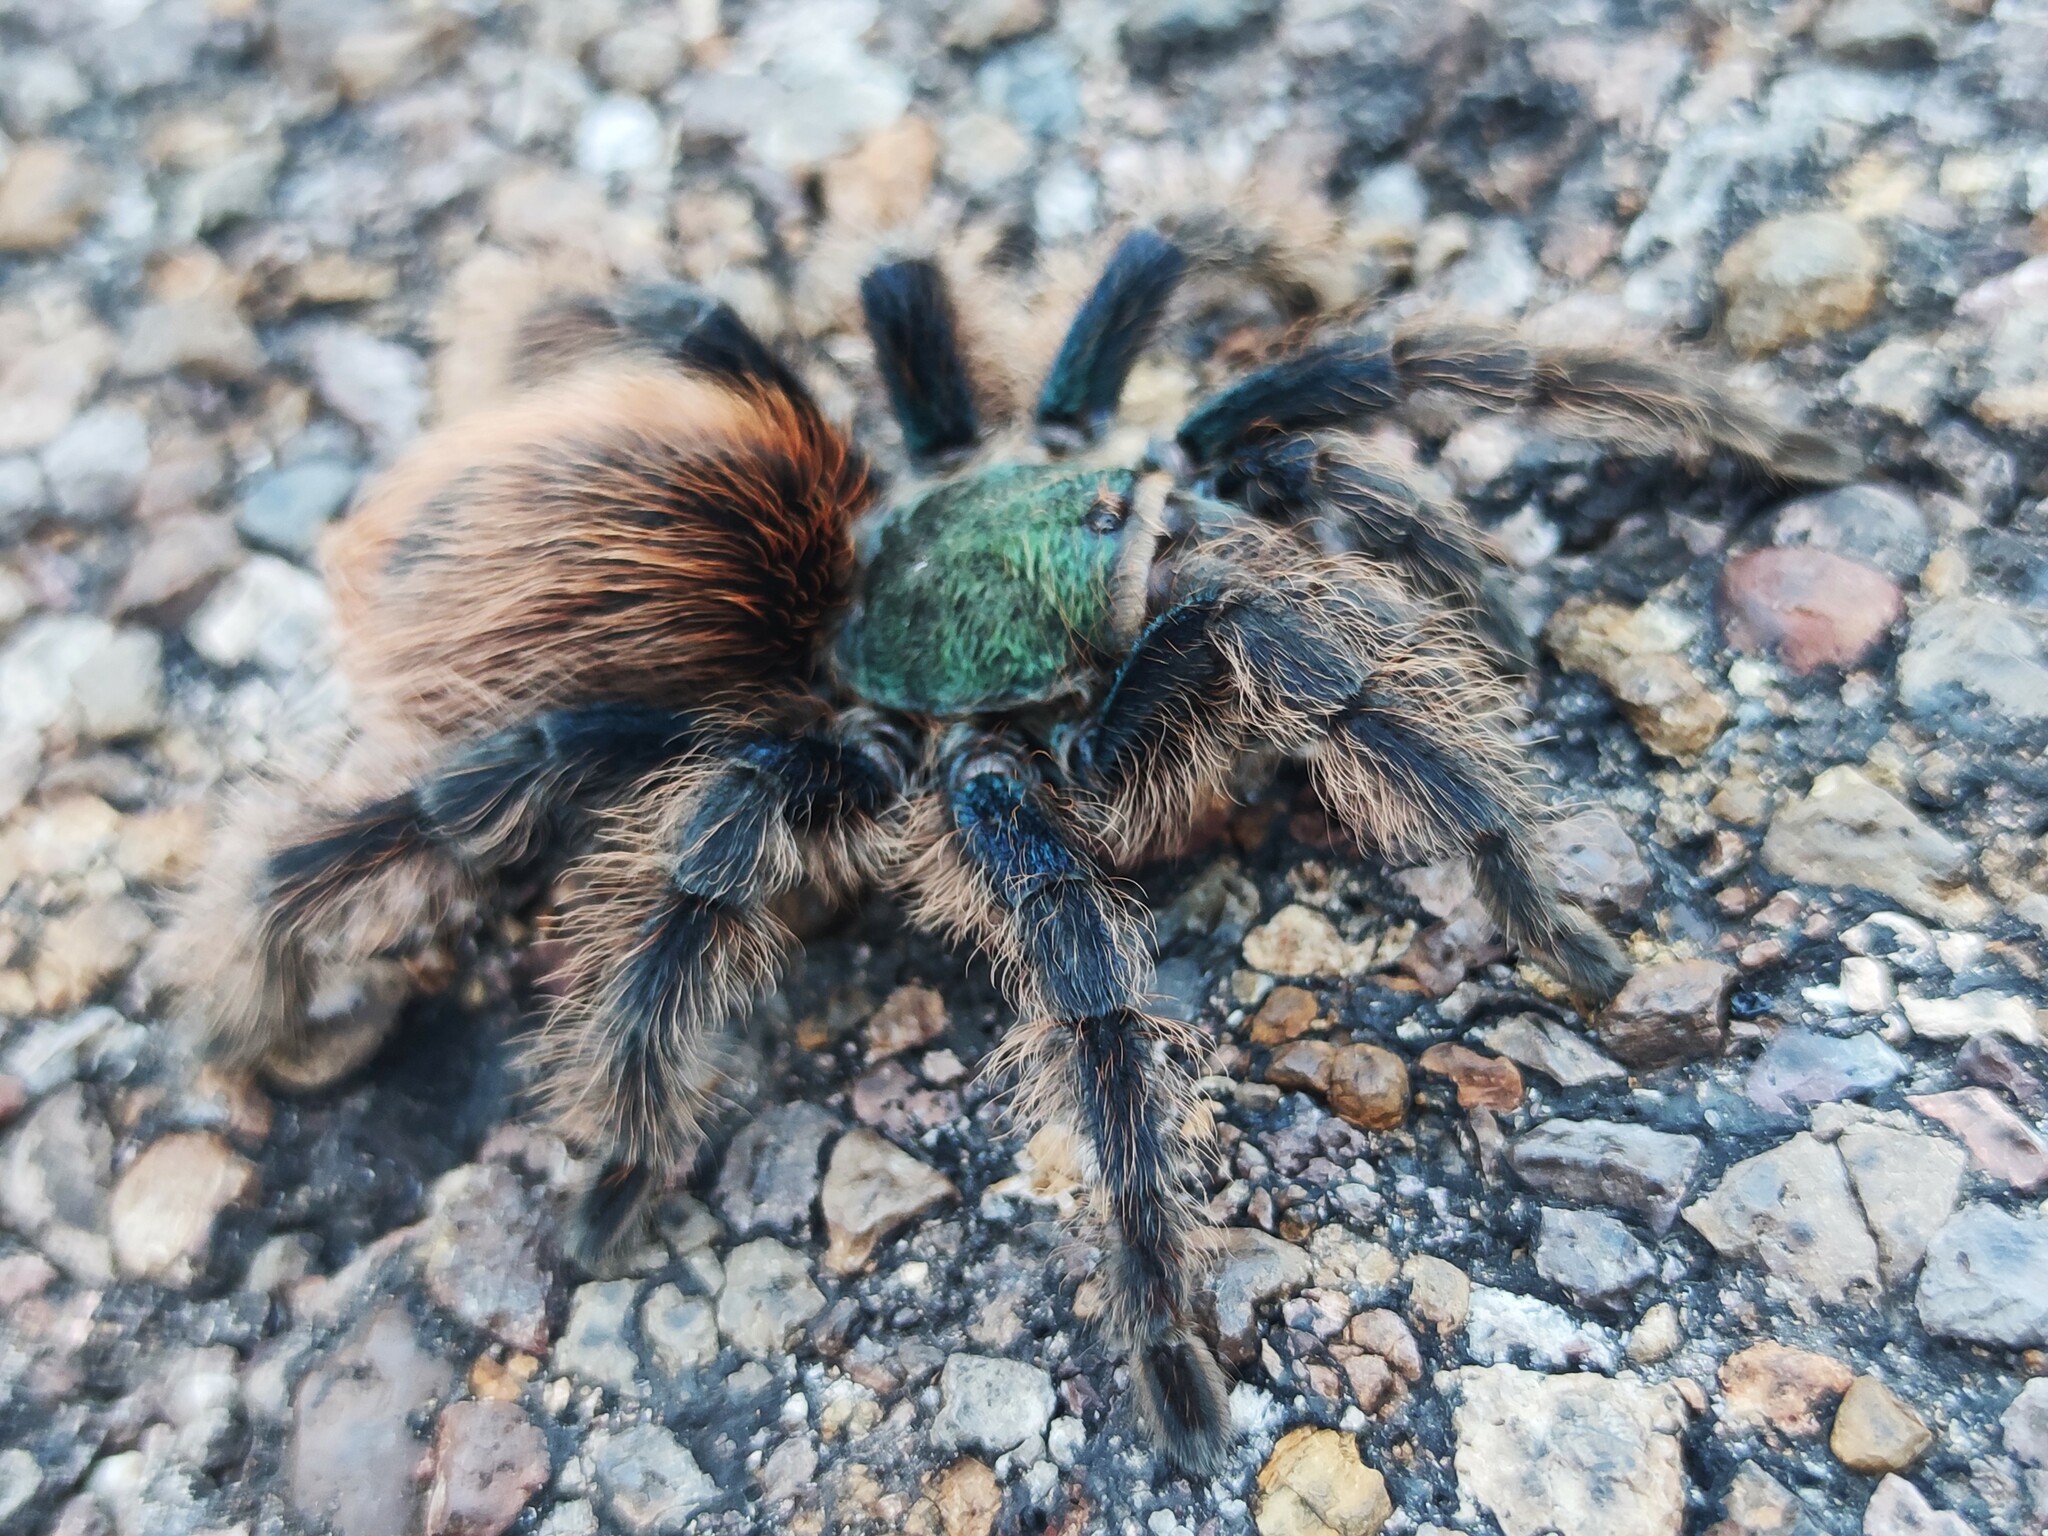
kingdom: Animalia
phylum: Arthropoda
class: Arachnida
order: Araneae
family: Theraphosidae
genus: Aphonopelma
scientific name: Aphonopelma mooreae
